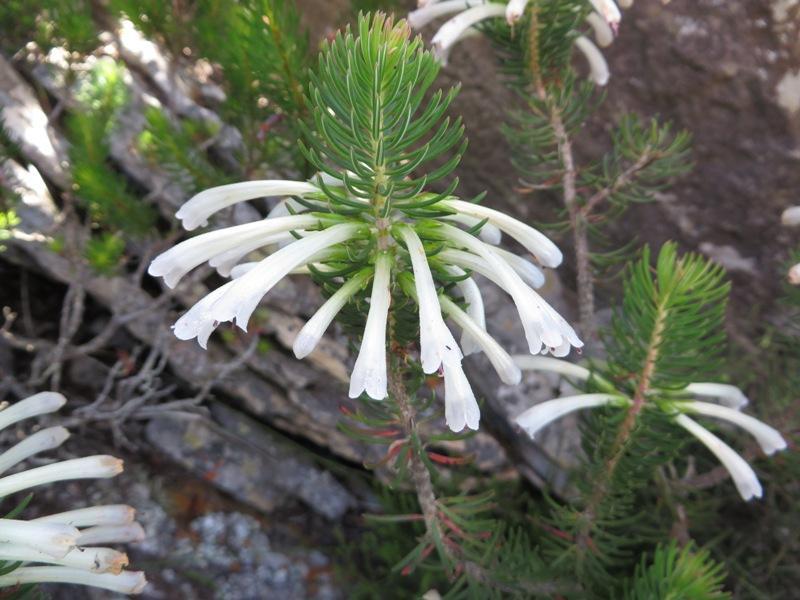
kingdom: Plantae
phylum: Tracheophyta
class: Magnoliopsida
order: Ericales
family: Ericaceae
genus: Erica
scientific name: Erica thomae
